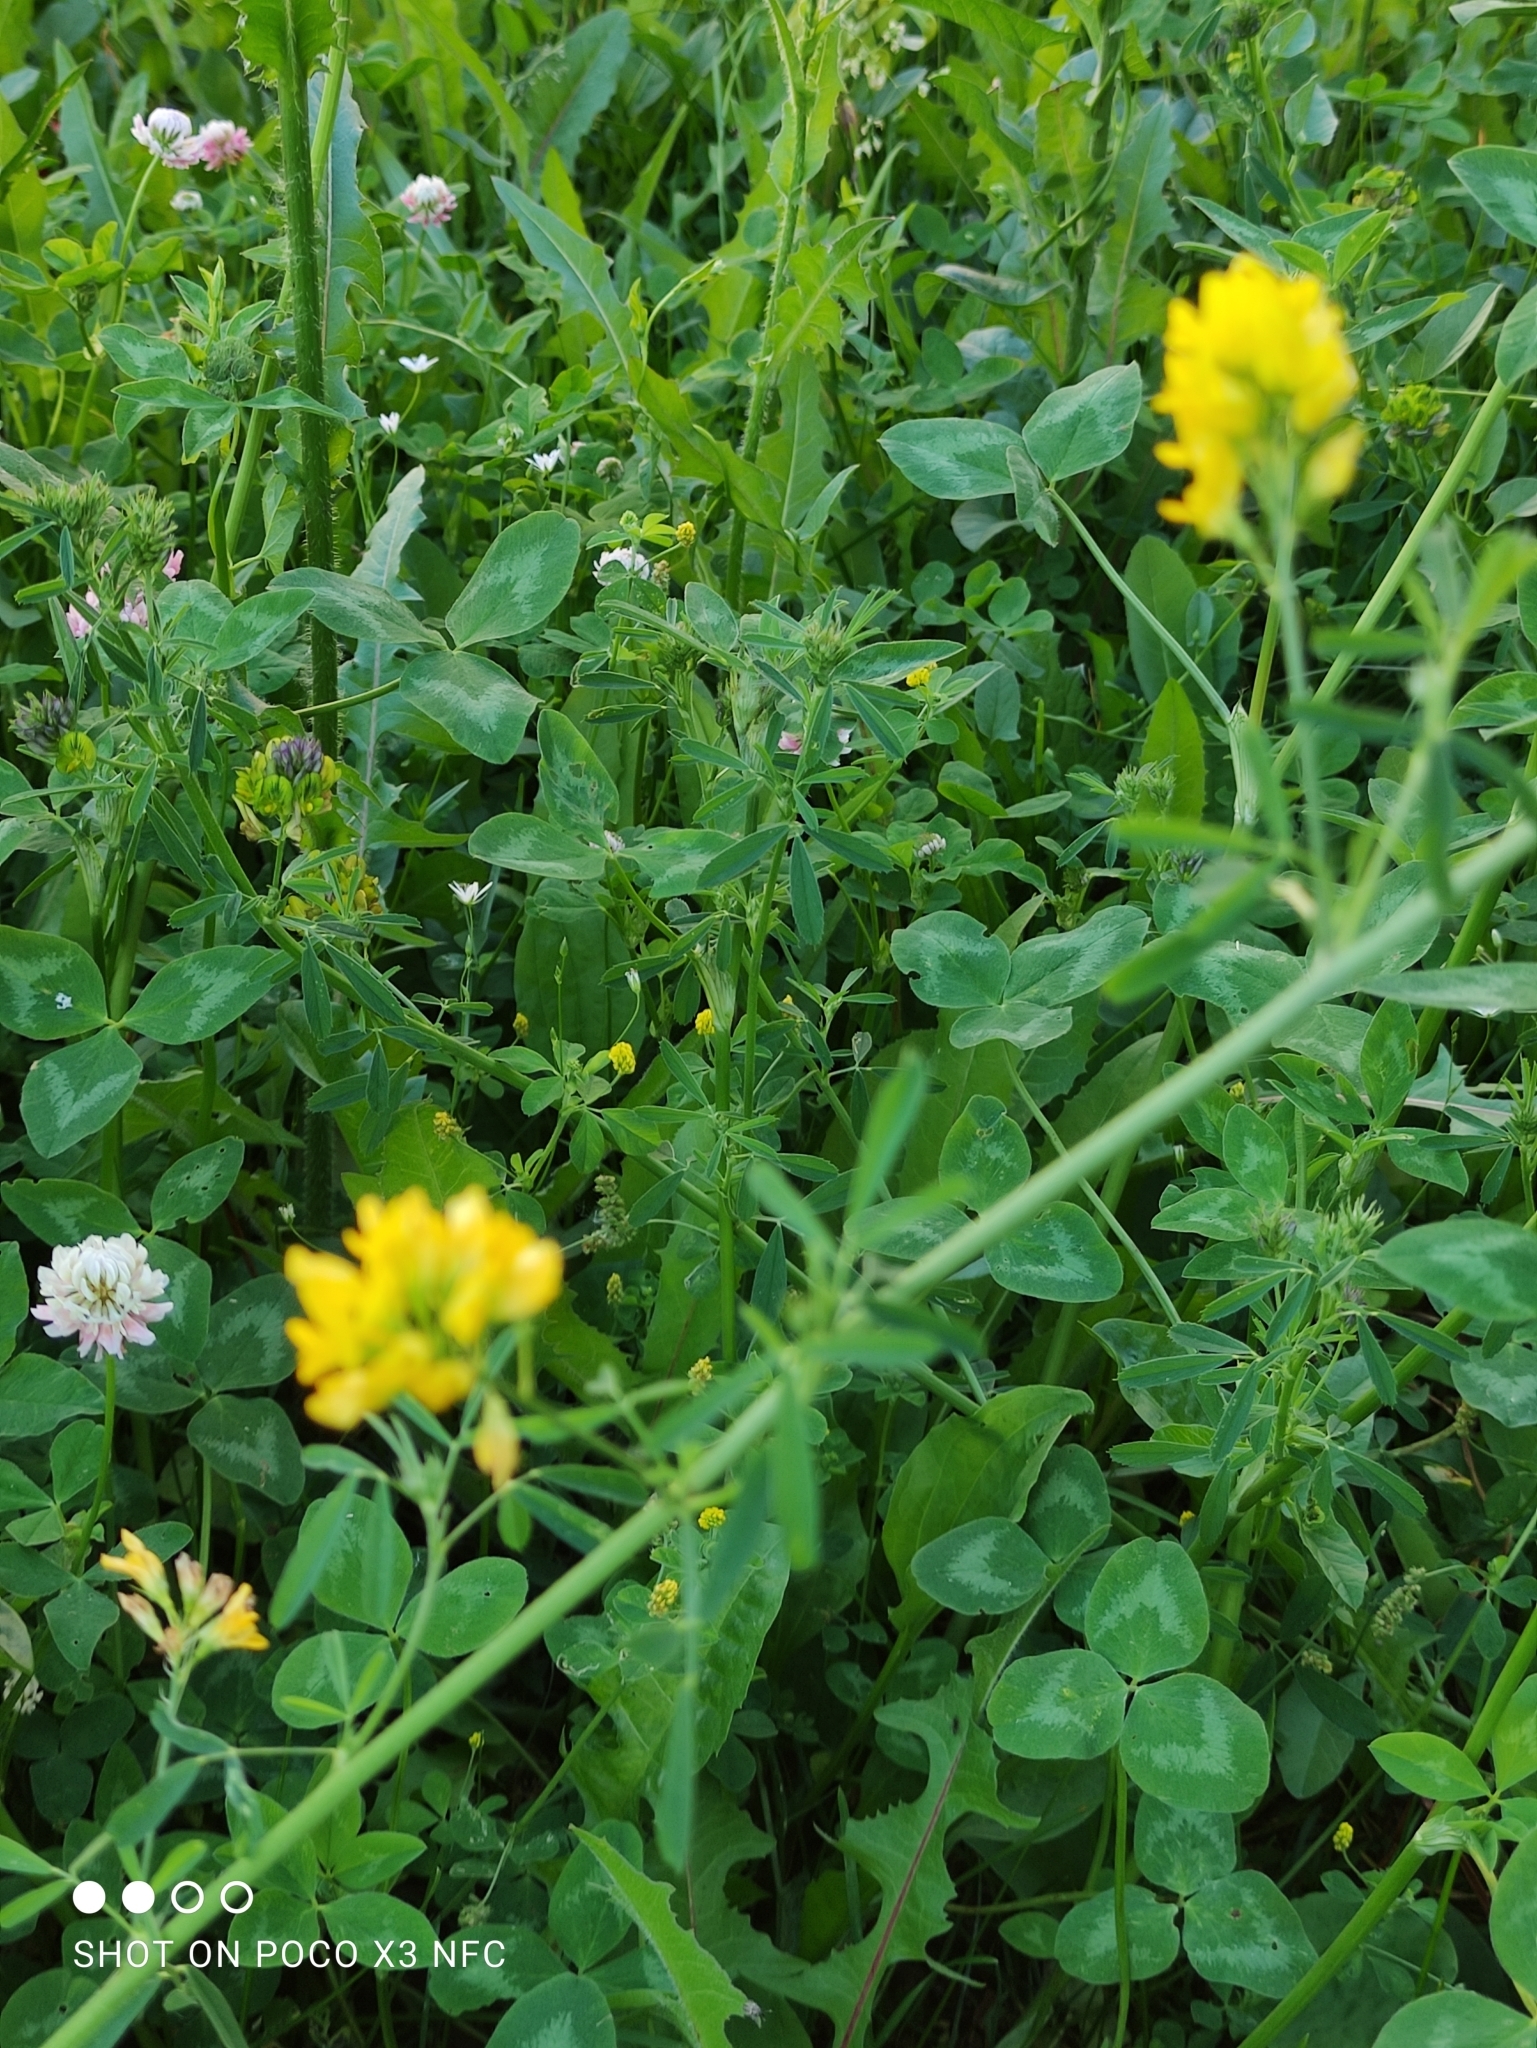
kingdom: Plantae
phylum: Tracheophyta
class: Magnoliopsida
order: Fabales
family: Fabaceae
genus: Medicago
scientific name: Medicago falcata
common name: Sickle medick
